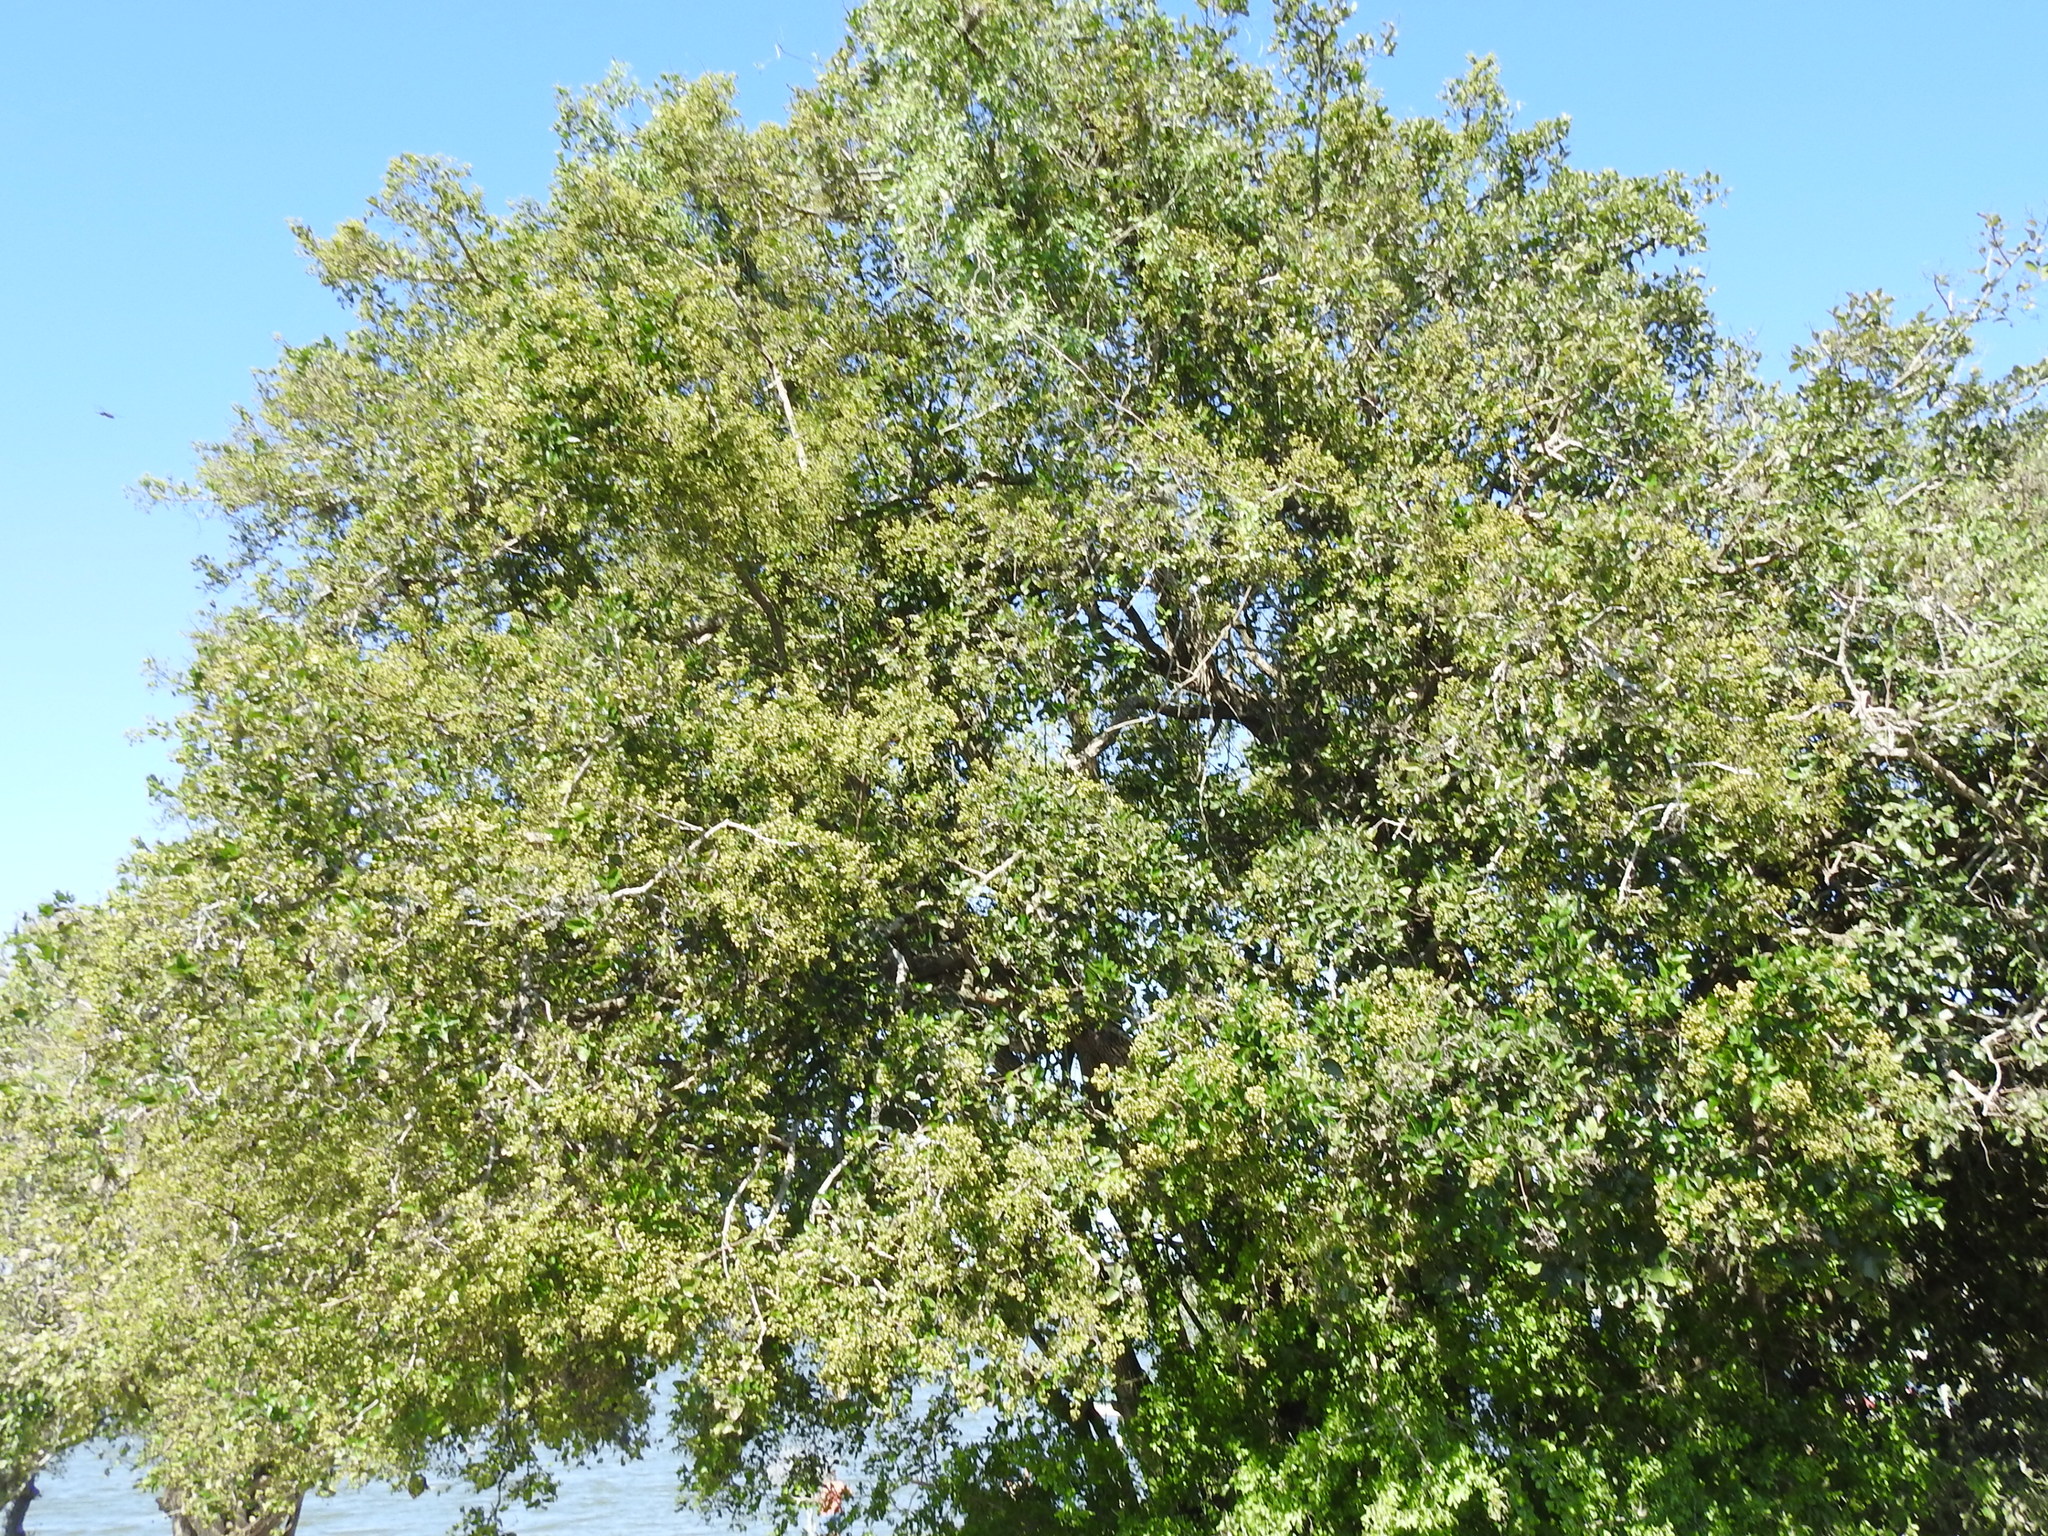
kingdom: Plantae
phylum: Tracheophyta
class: Magnoliopsida
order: Boraginales
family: Ehretiaceae
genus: Ehretia
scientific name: Ehretia anacua
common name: Sugarberry
